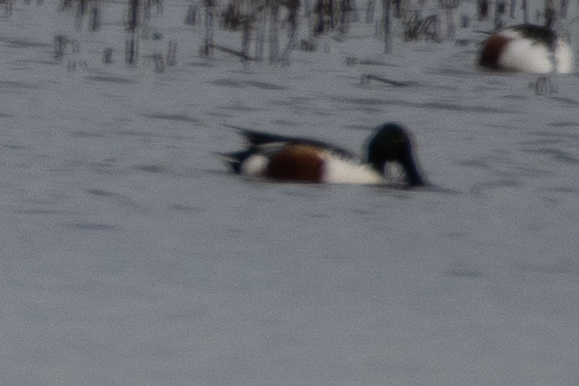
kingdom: Animalia
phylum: Chordata
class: Aves
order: Anseriformes
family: Anatidae
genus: Spatula
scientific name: Spatula clypeata
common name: Northern shoveler
